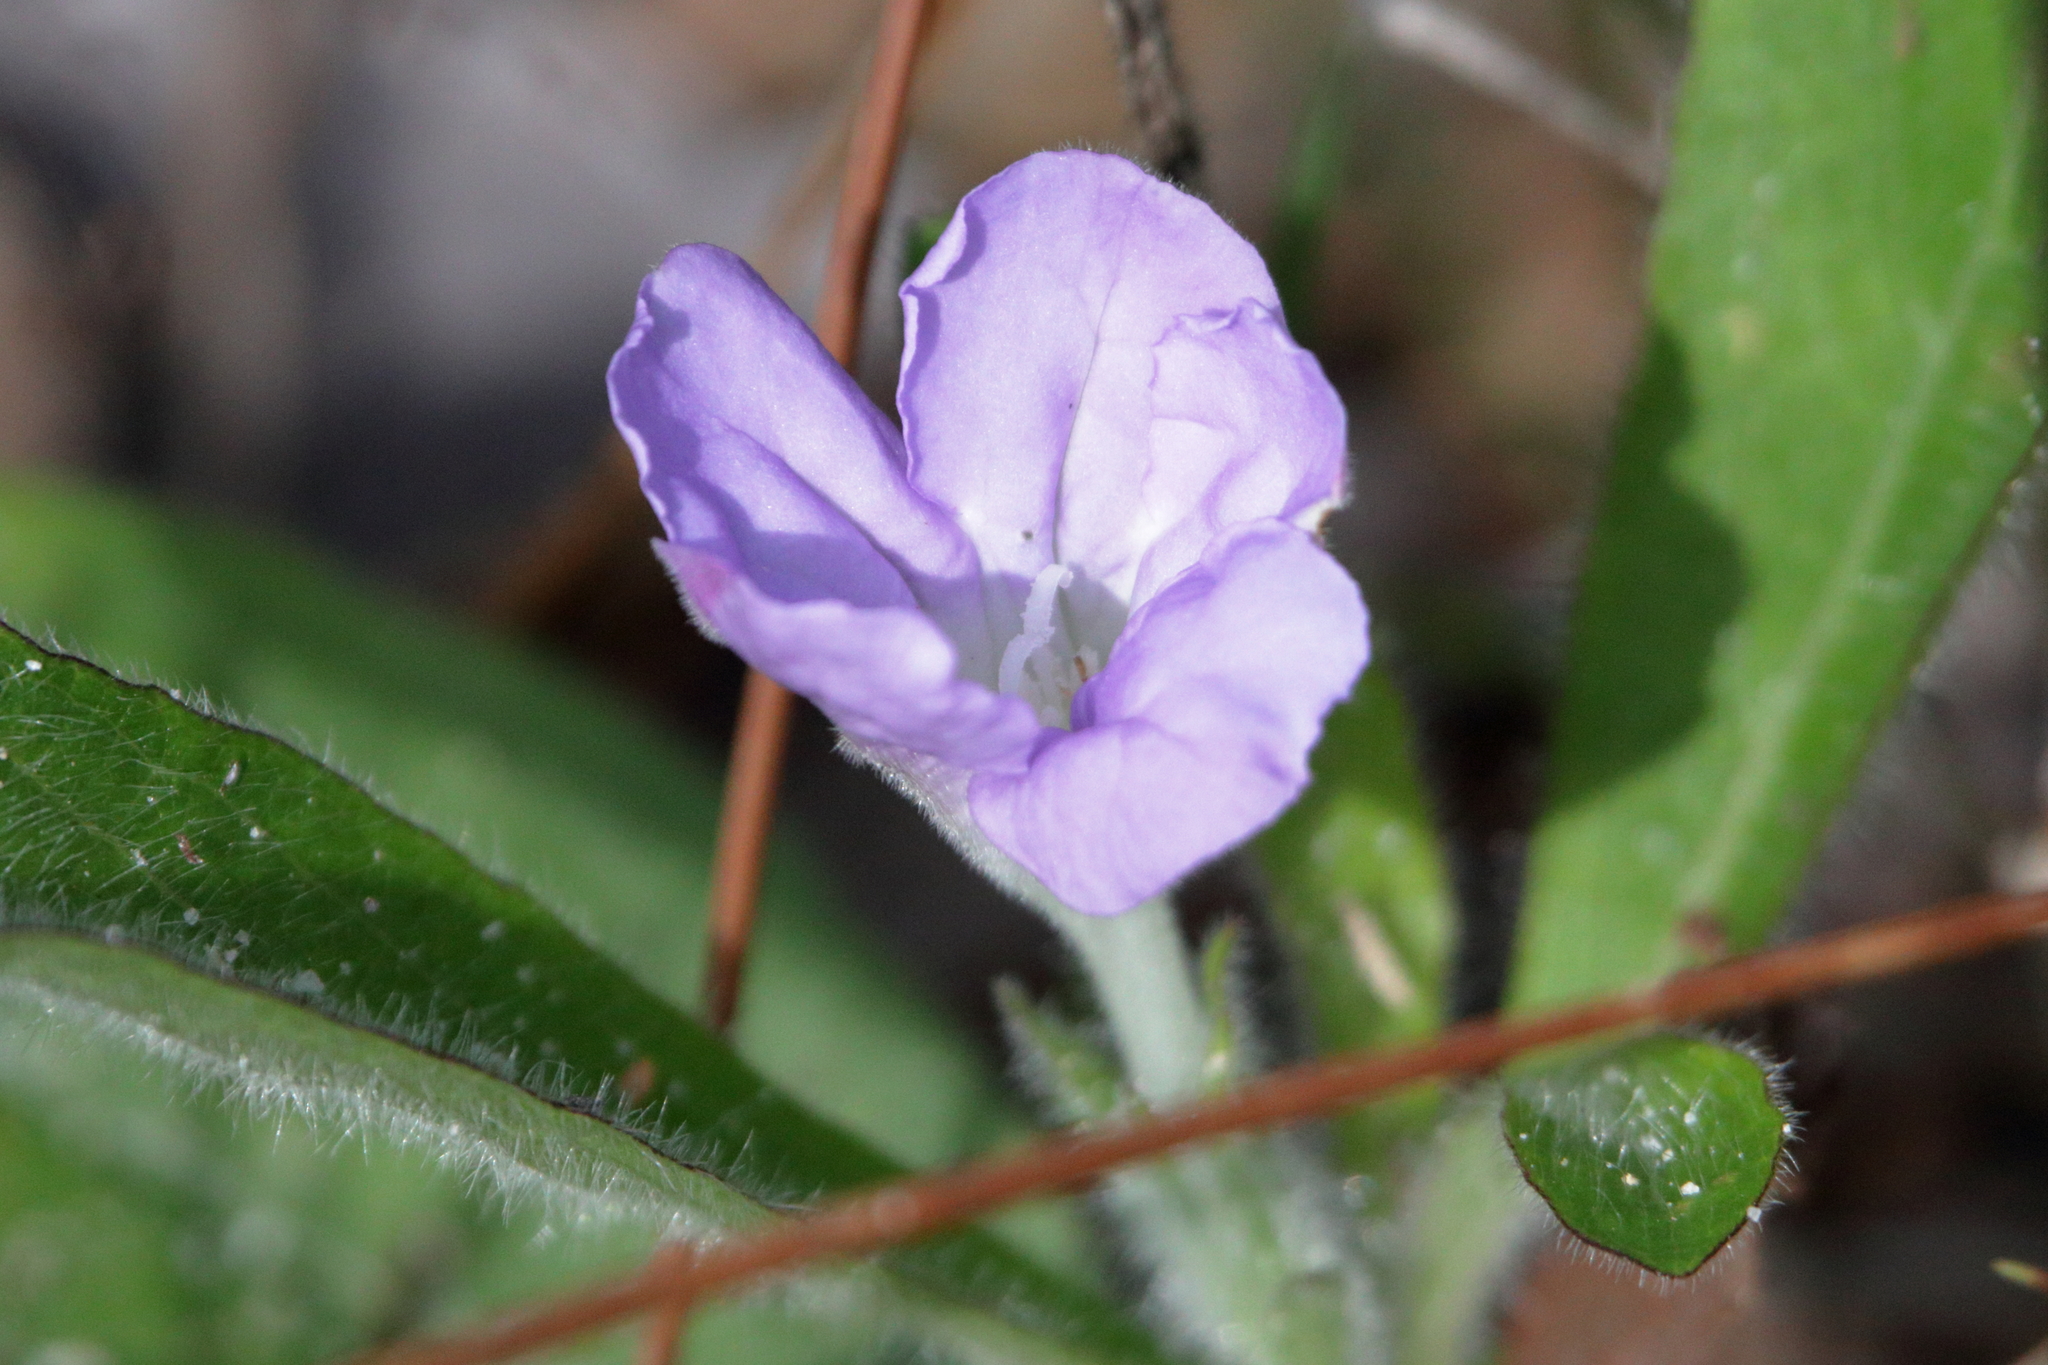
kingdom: Plantae
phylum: Tracheophyta
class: Magnoliopsida
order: Lamiales
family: Acanthaceae
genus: Ruellia
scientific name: Ruellia caroliniensis
